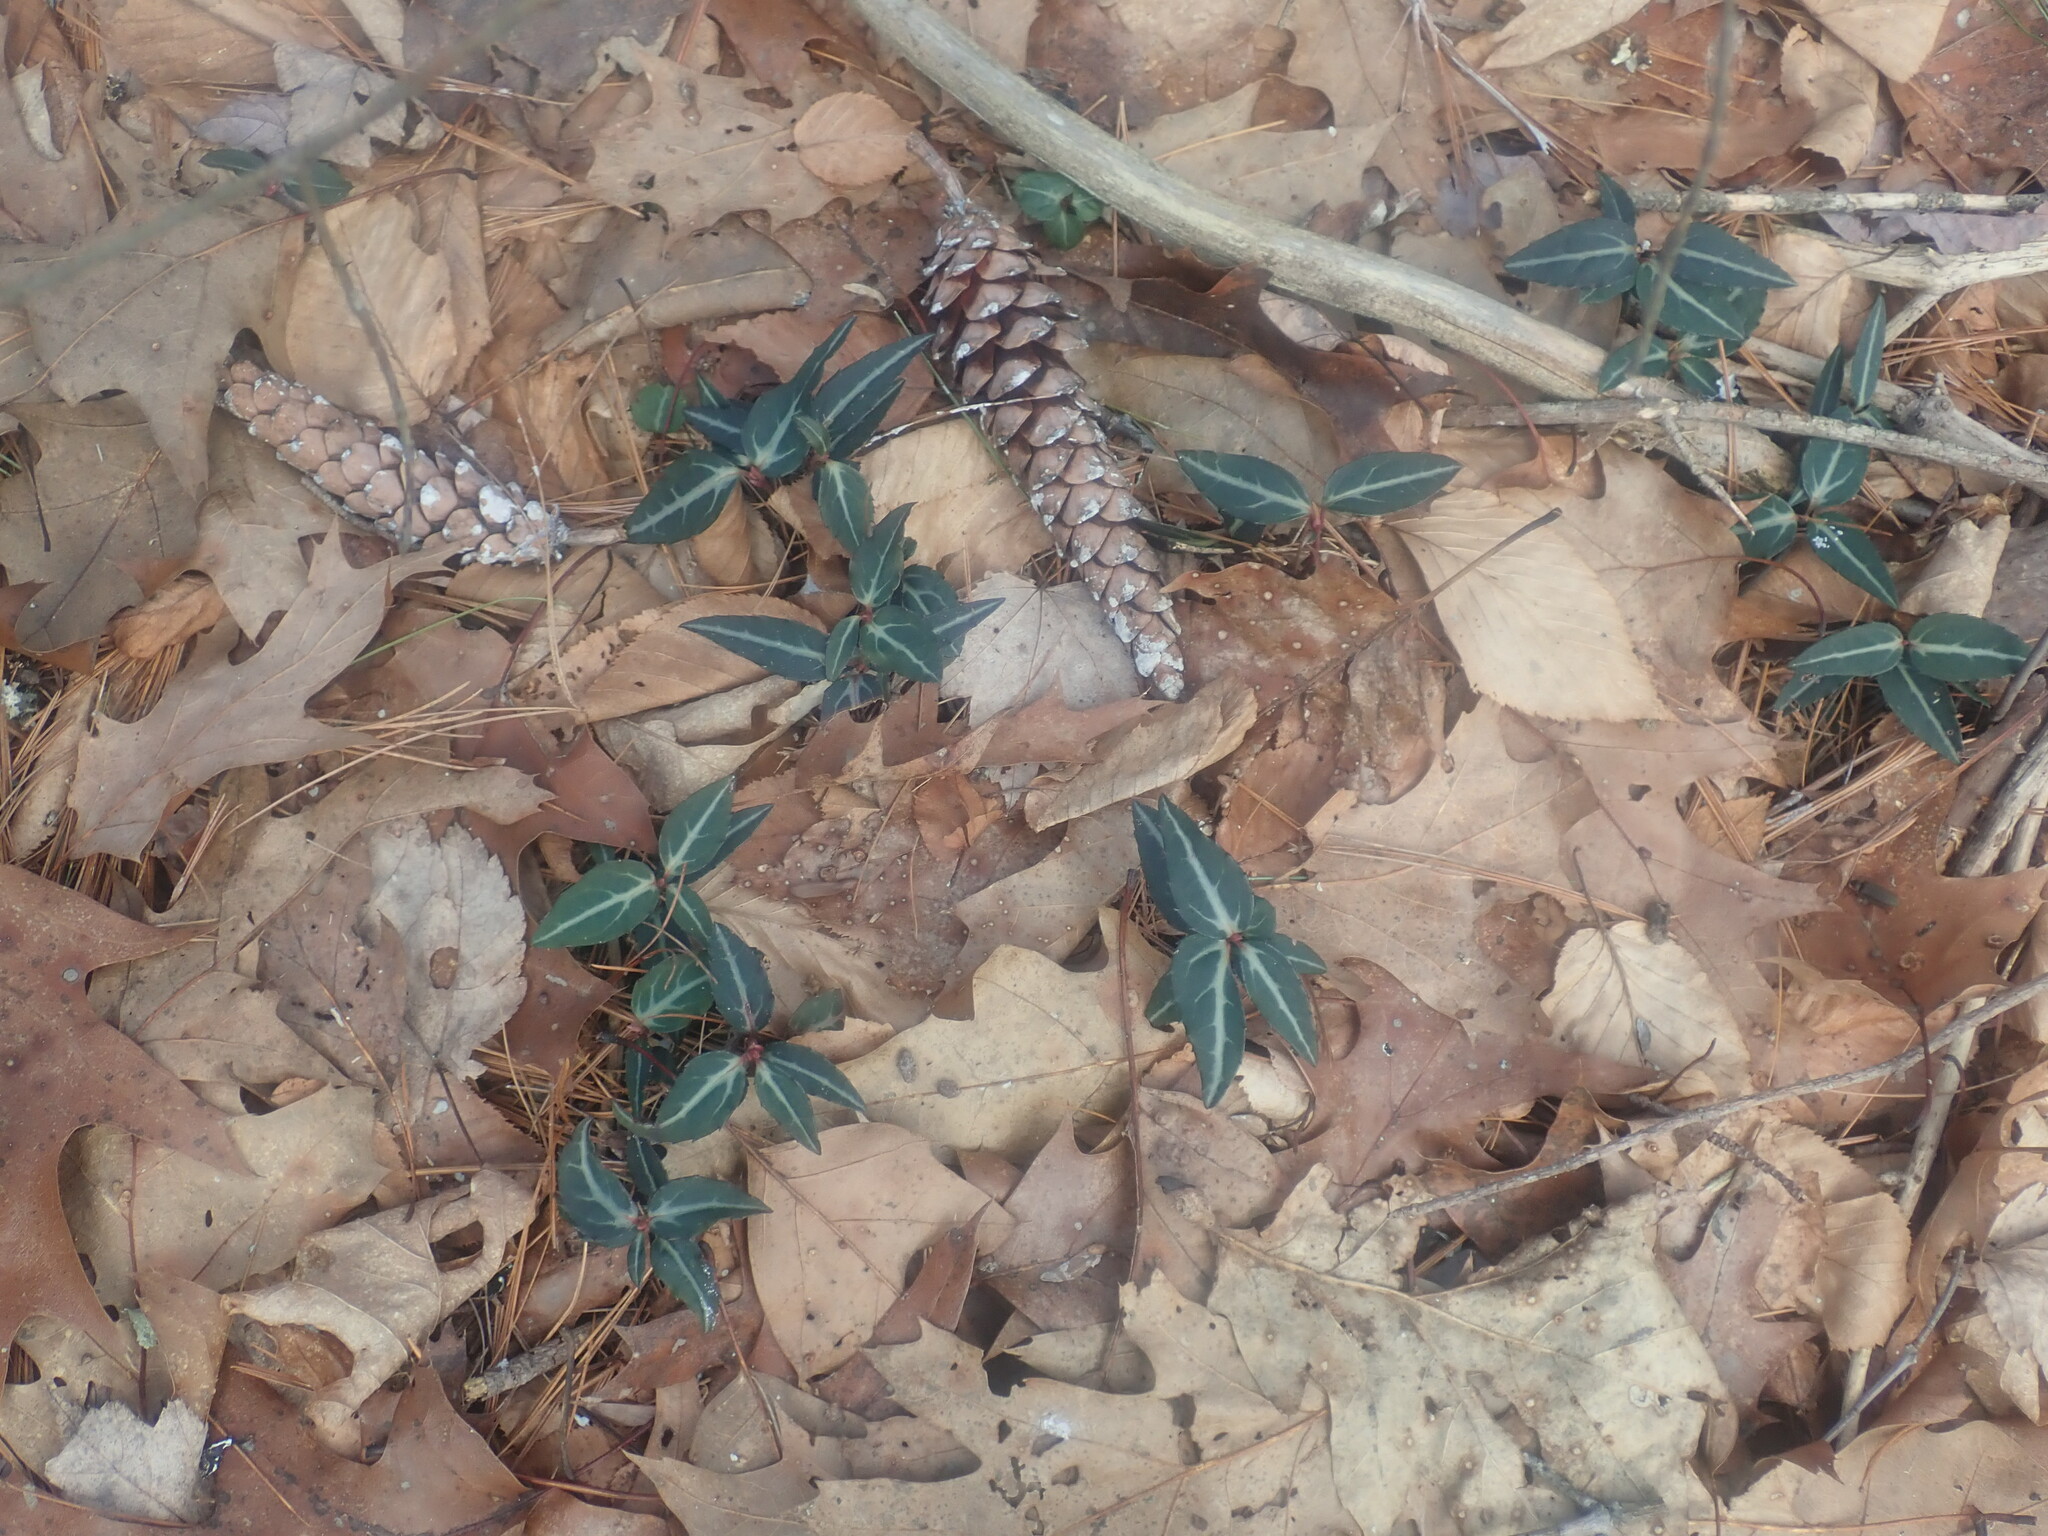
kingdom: Plantae
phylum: Tracheophyta
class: Magnoliopsida
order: Ericales
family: Ericaceae
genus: Chimaphila
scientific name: Chimaphila maculata
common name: Spotted pipsissewa
